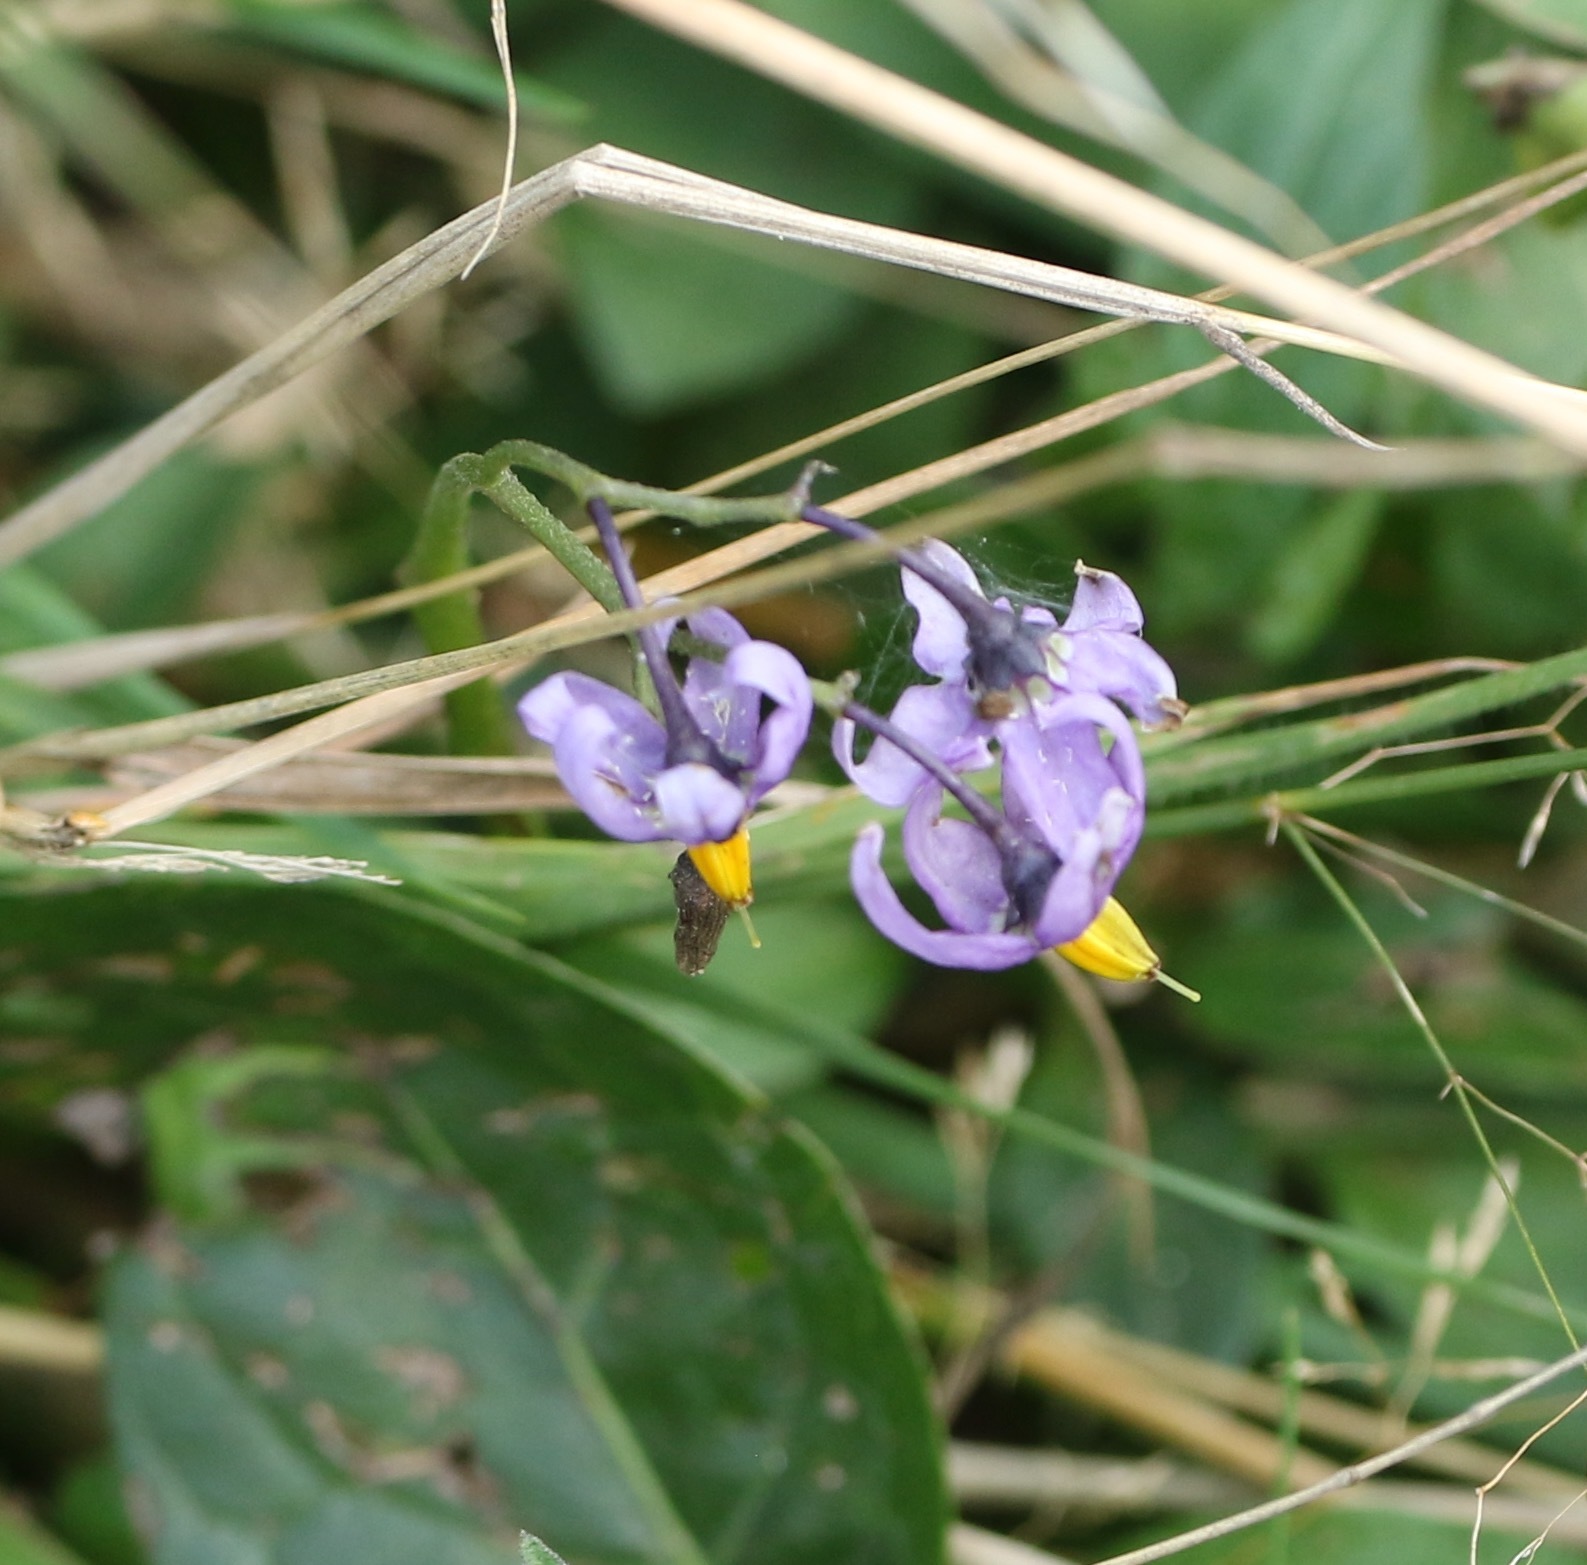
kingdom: Plantae
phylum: Tracheophyta
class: Magnoliopsida
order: Solanales
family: Solanaceae
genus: Solanum
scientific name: Solanum dulcamara
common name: Climbing nightshade
